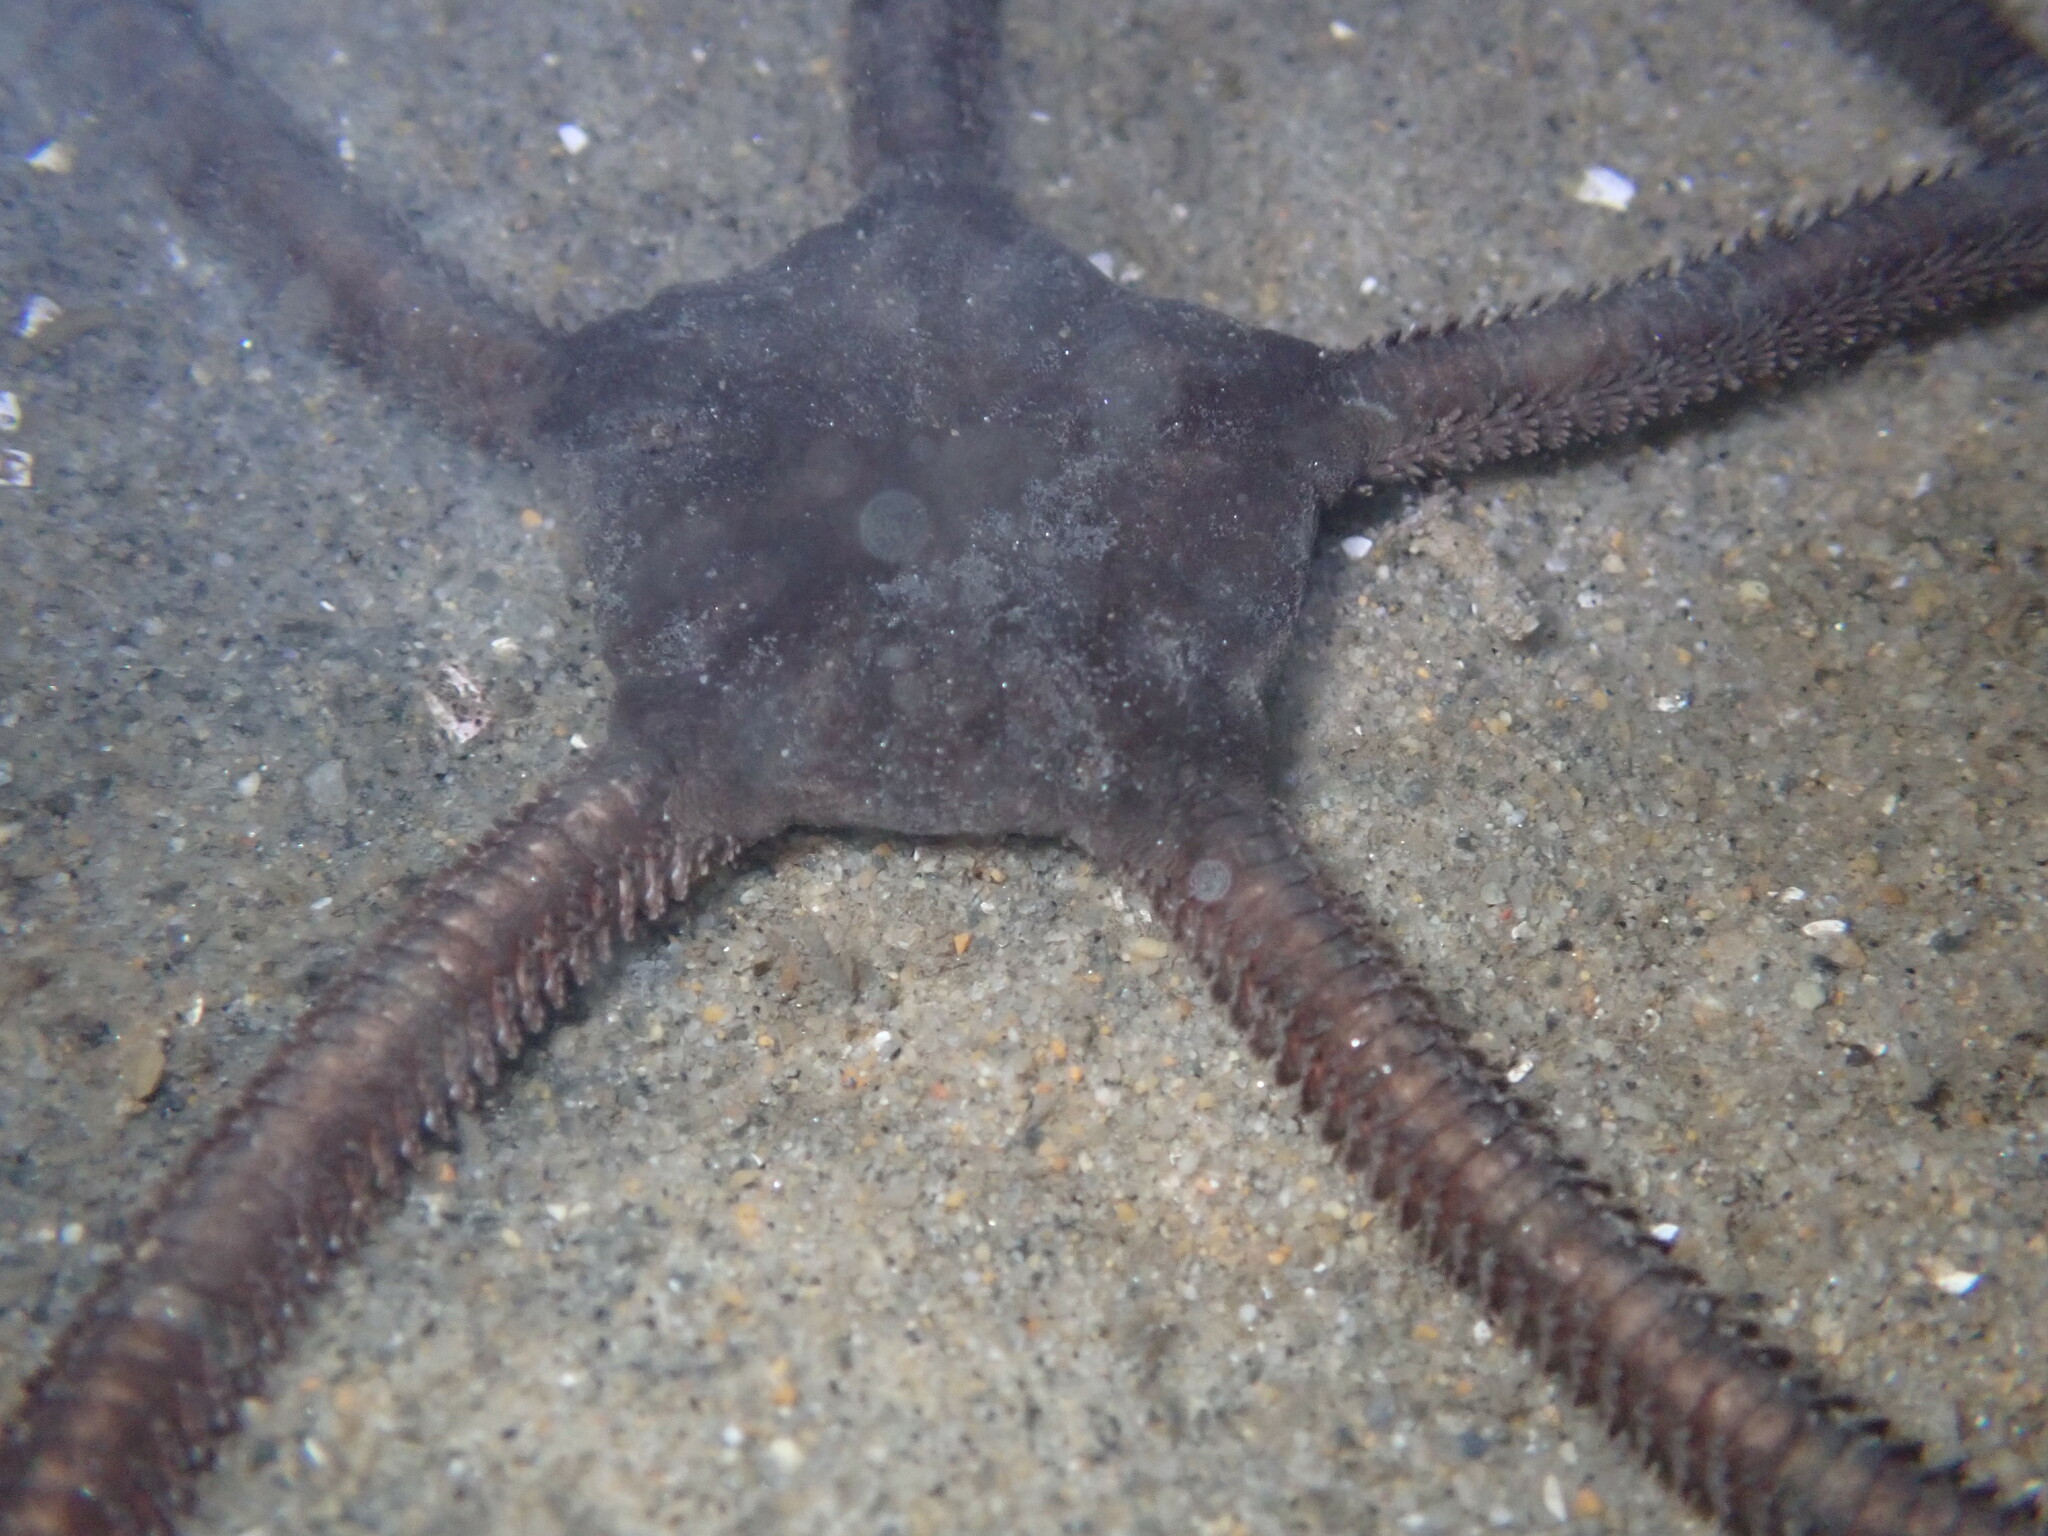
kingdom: Animalia
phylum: Echinodermata
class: Ophiuroidea
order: Ophiacanthida
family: Ophiodermatidae
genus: Ophioderma
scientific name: Ophioderma panamense
